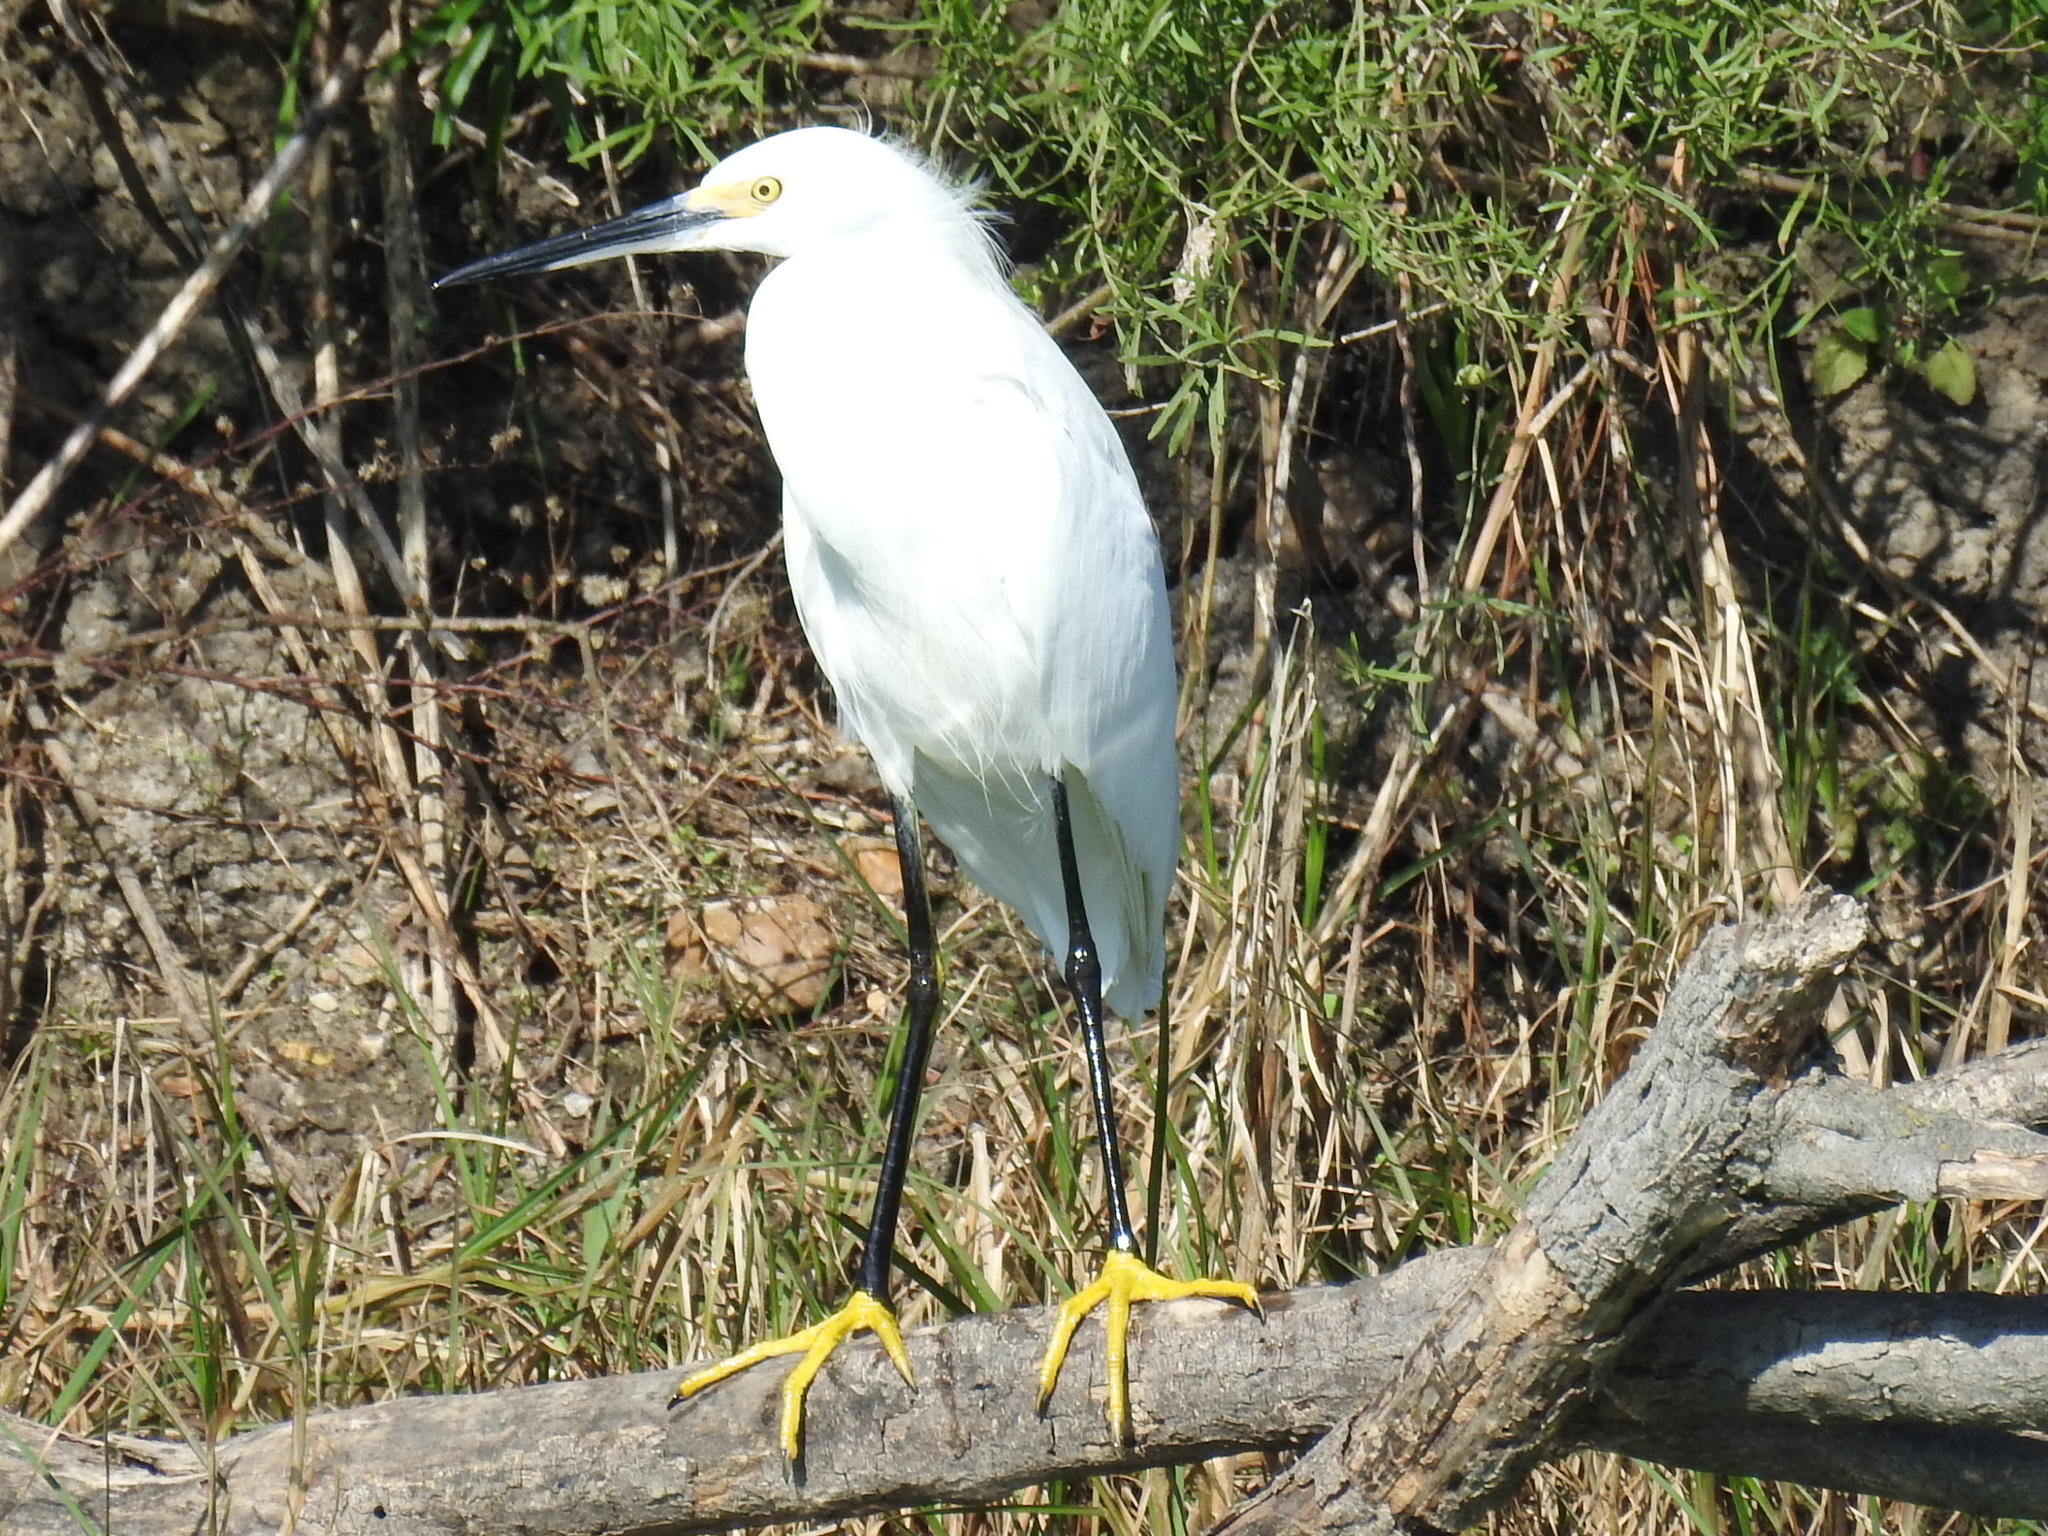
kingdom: Animalia
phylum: Chordata
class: Aves
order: Pelecaniformes
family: Ardeidae
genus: Egretta
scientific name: Egretta thula
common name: Snowy egret
